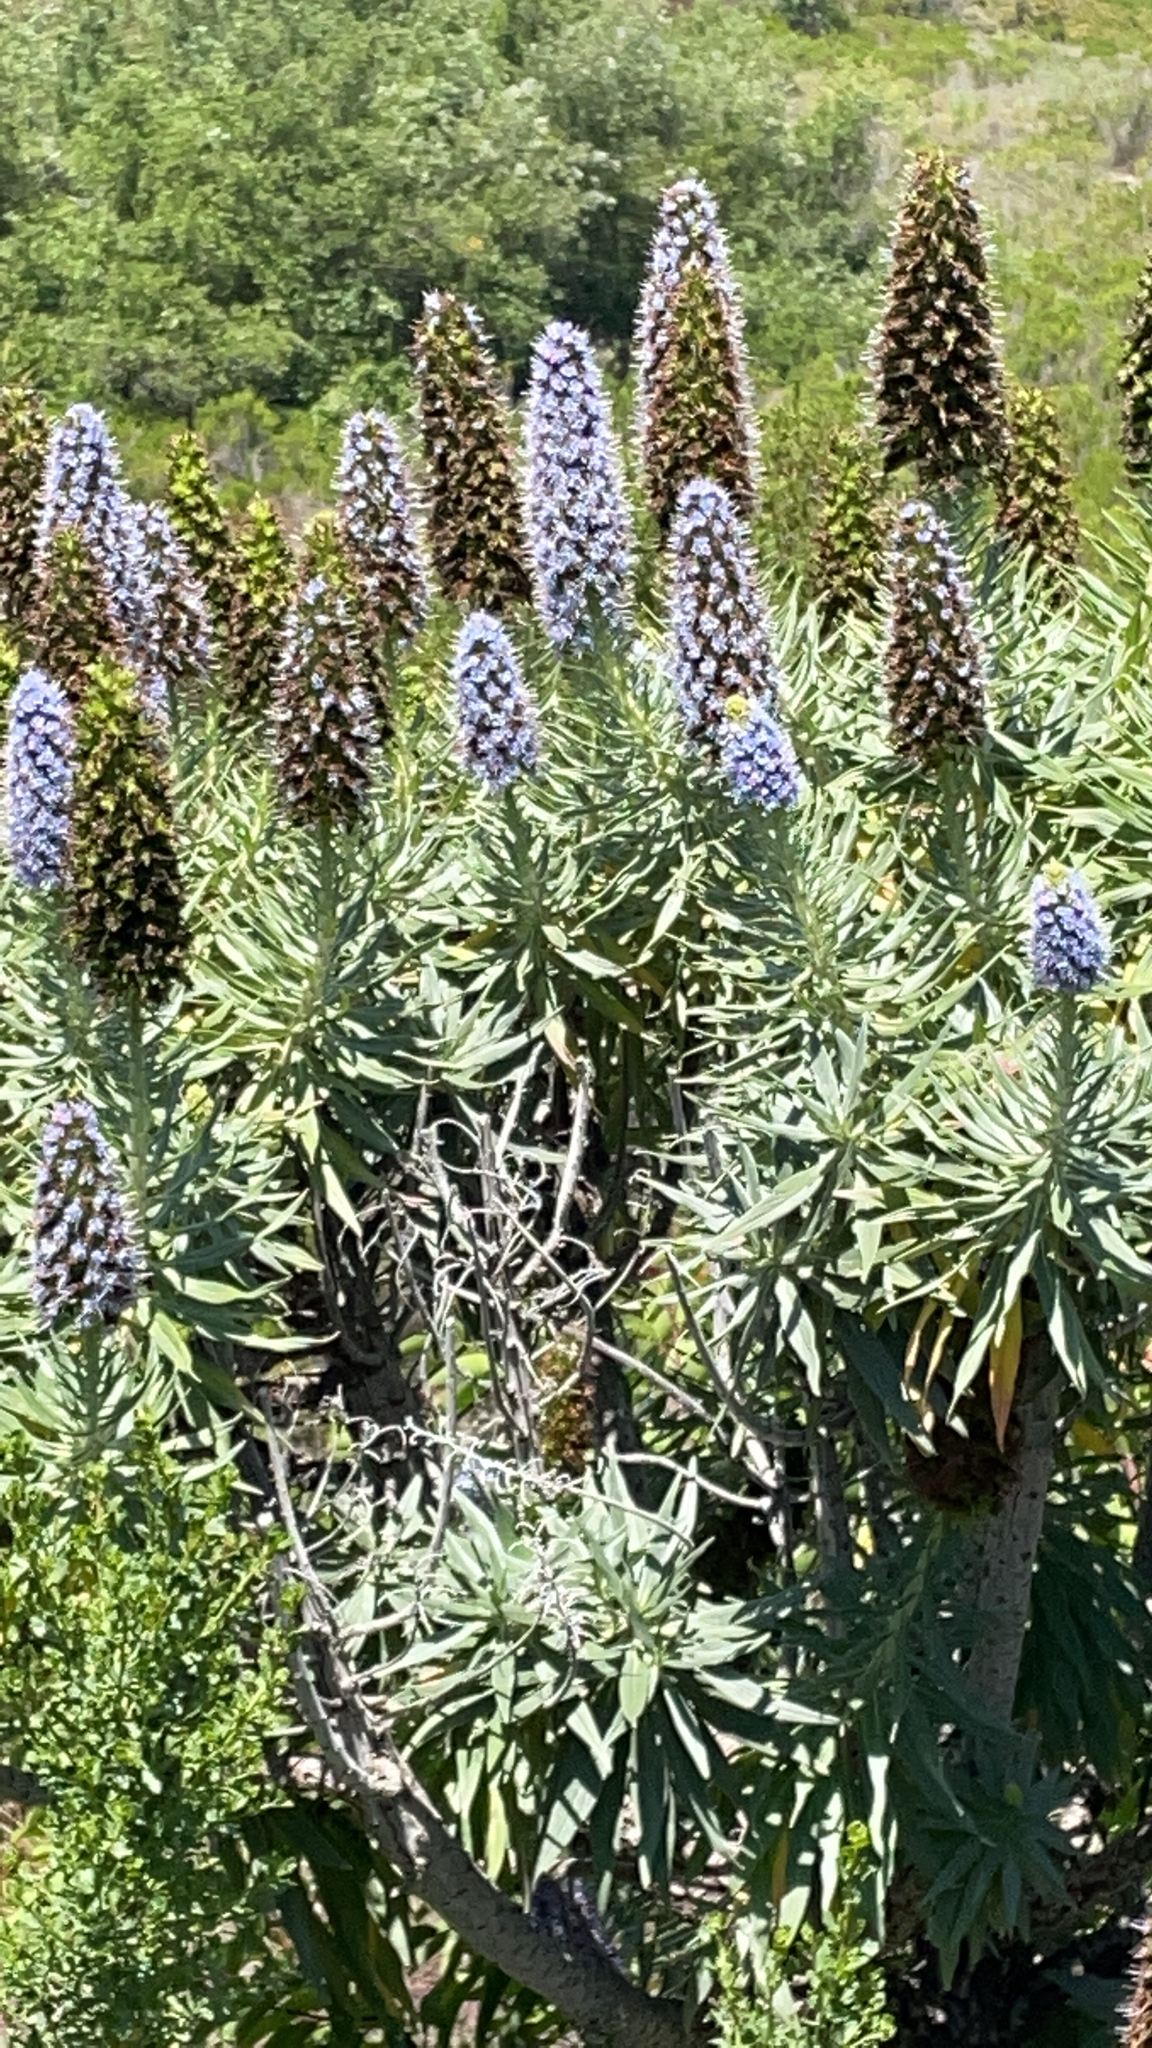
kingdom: Plantae
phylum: Tracheophyta
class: Magnoliopsida
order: Boraginales
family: Boraginaceae
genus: Echium
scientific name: Echium candicans
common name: Pride of madeira
